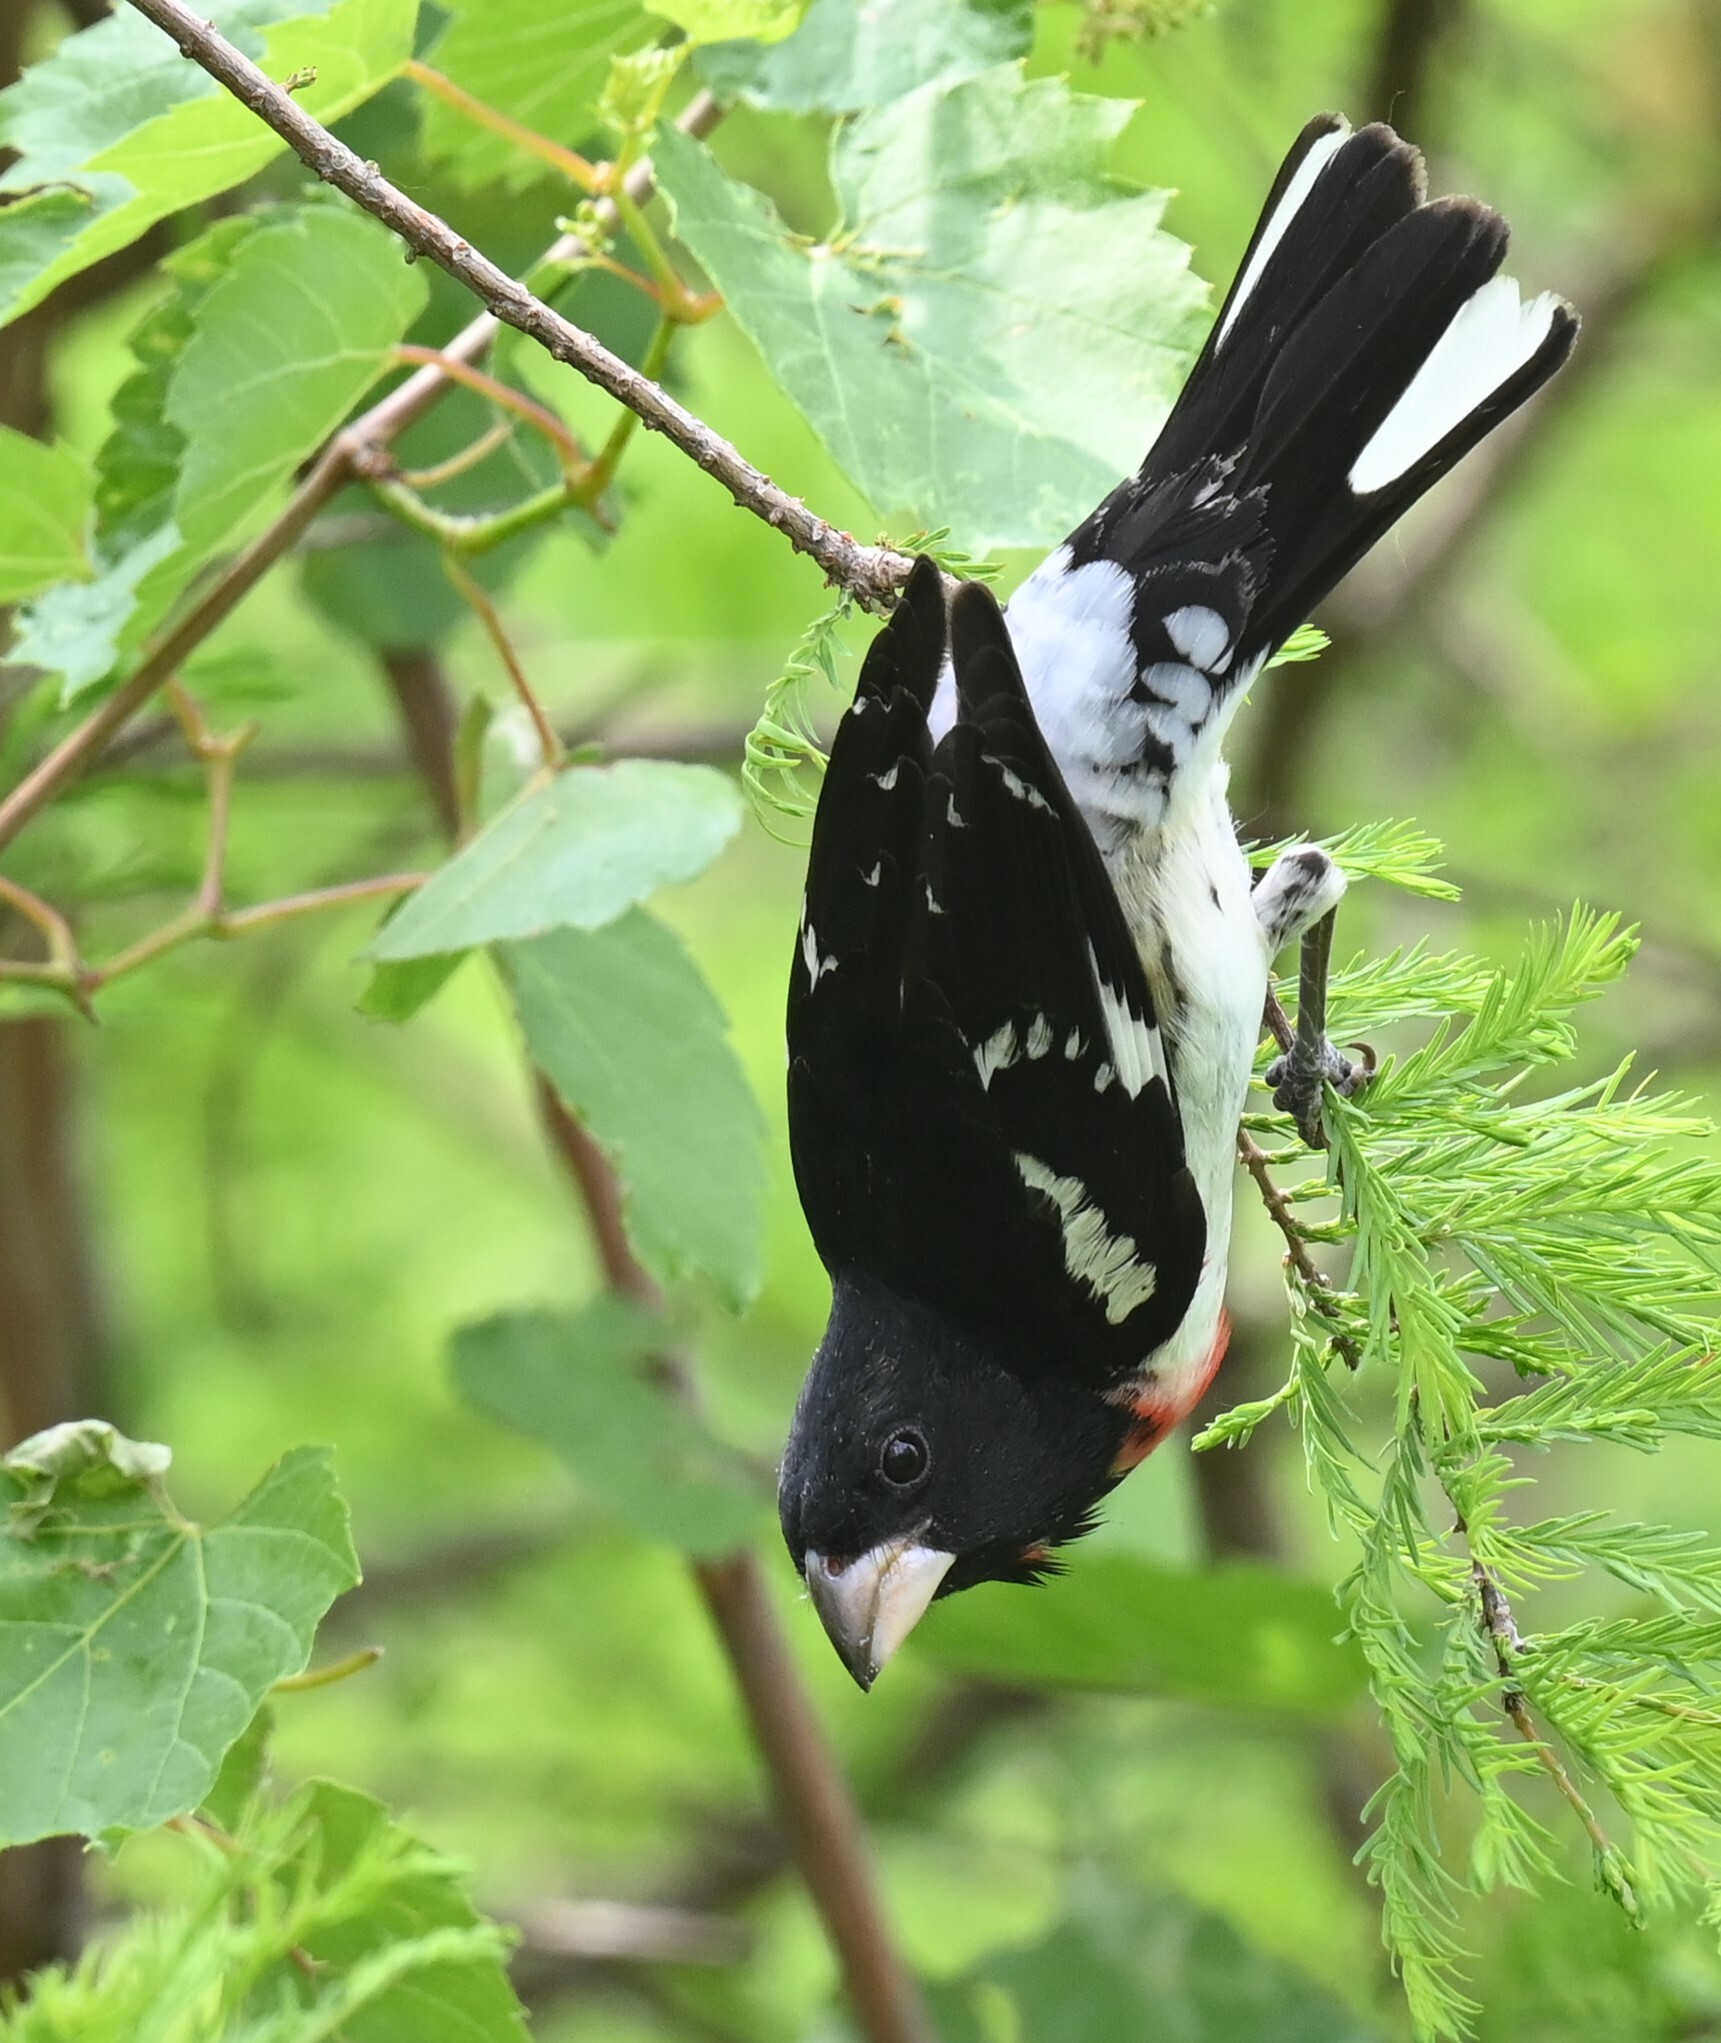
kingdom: Animalia
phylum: Chordata
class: Aves
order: Passeriformes
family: Cardinalidae
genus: Pheucticus
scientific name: Pheucticus ludovicianus
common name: Rose-breasted grosbeak
